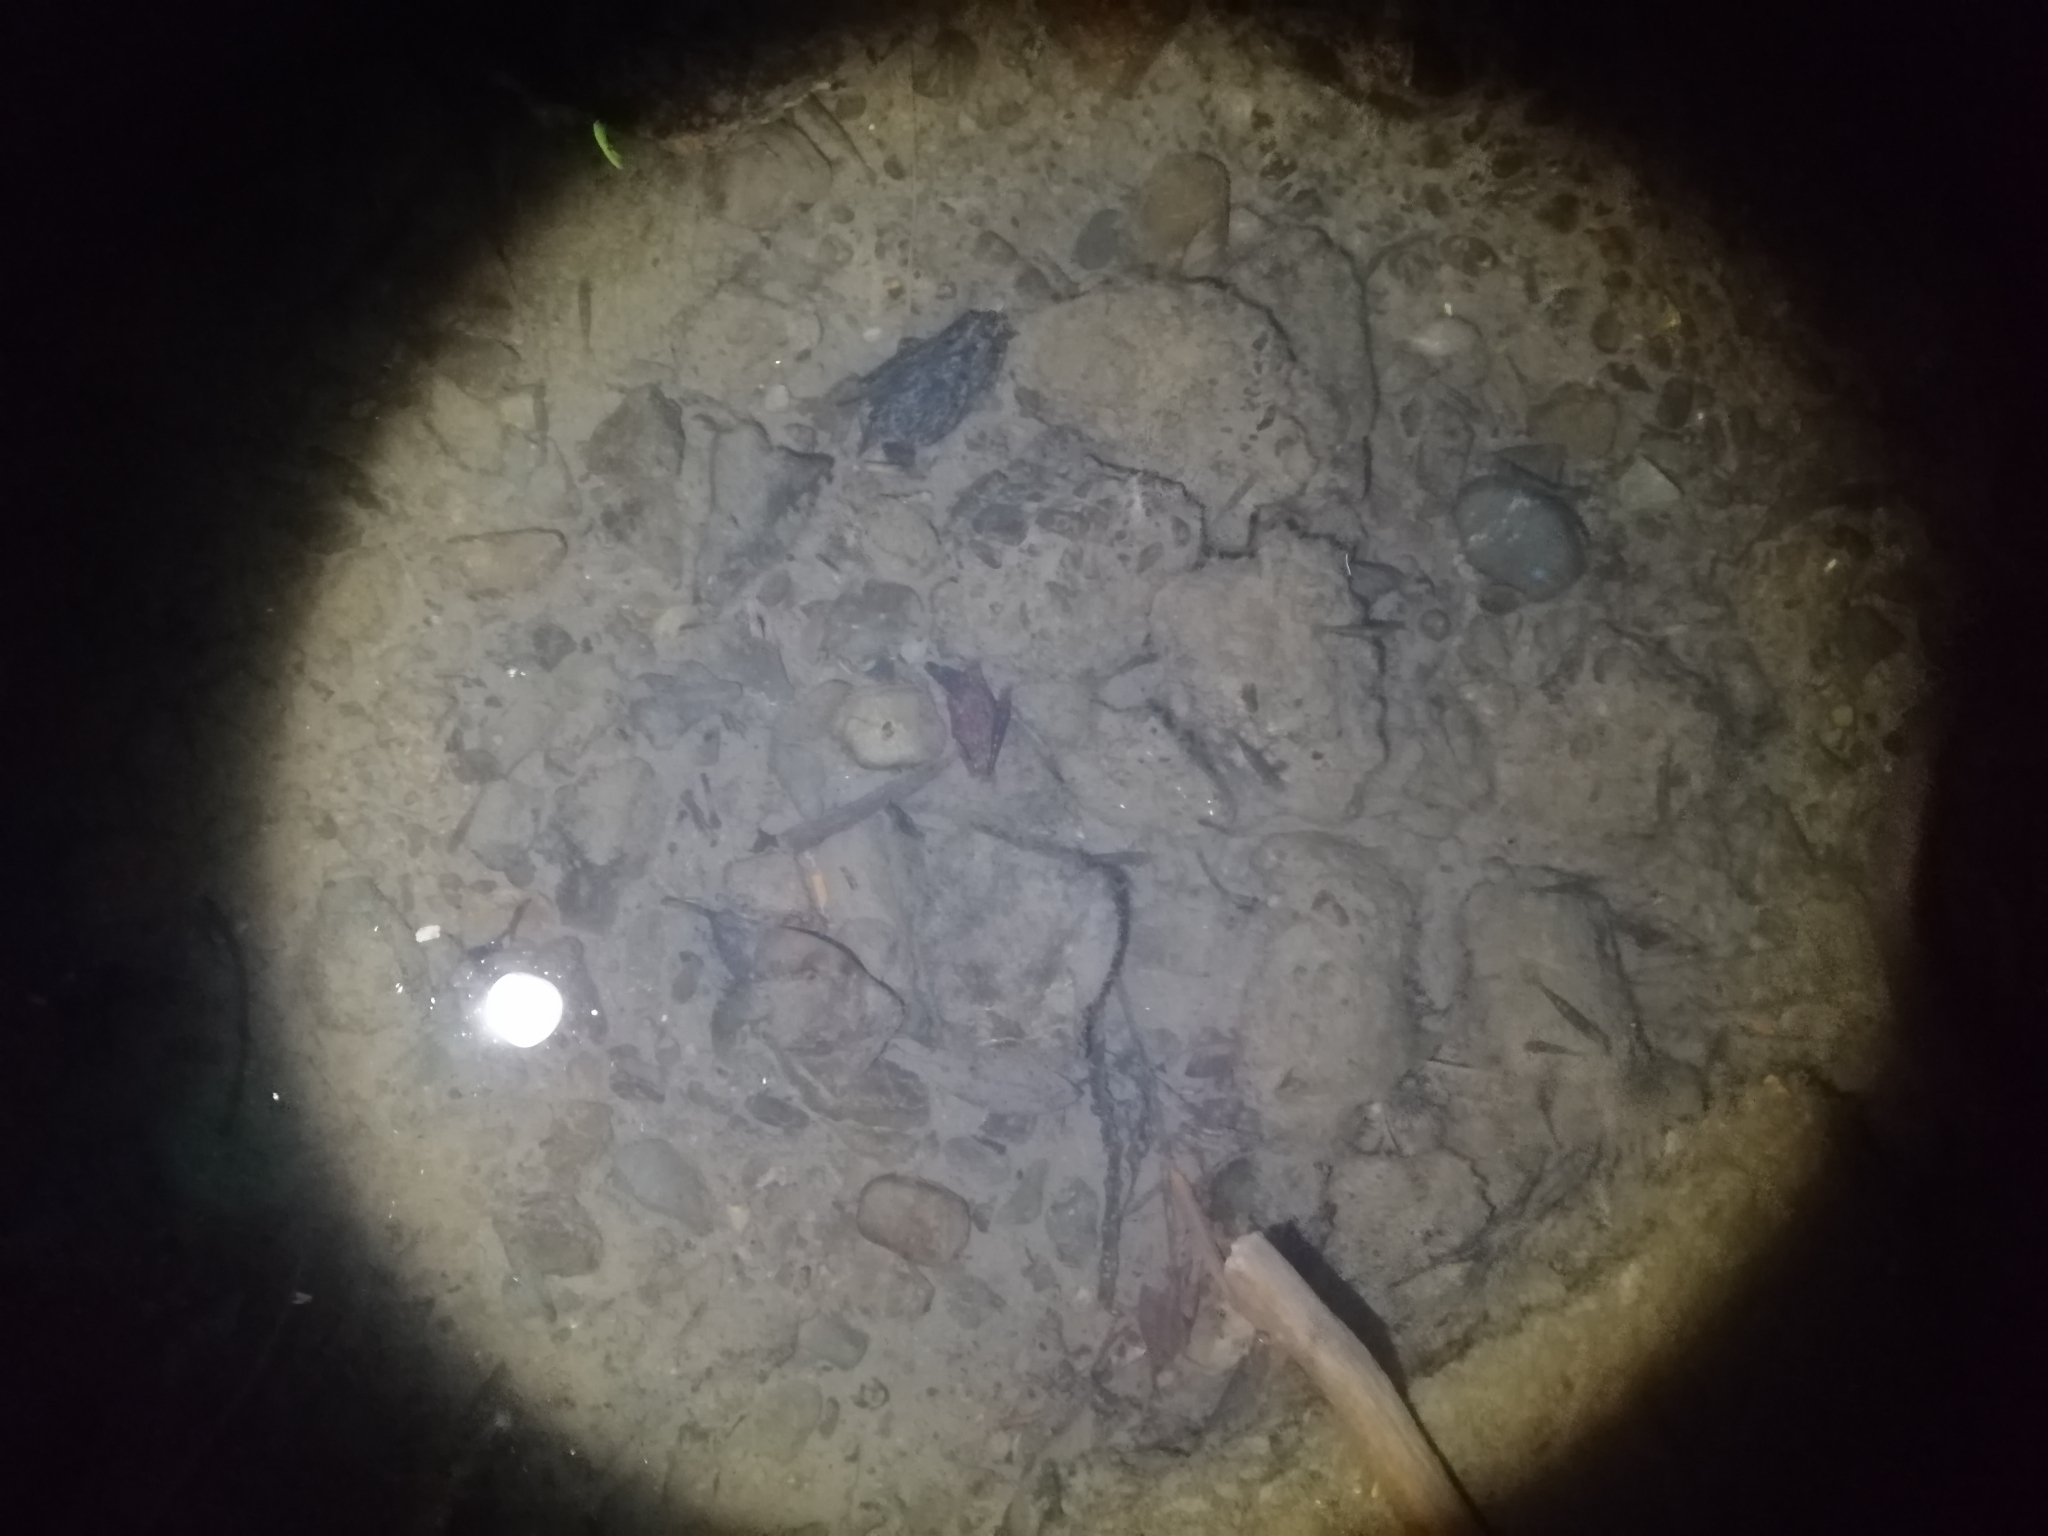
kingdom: Animalia
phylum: Arthropoda
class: Malacostraca
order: Decapoda
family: Atyidae
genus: Paratya
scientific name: Paratya curvirostris
